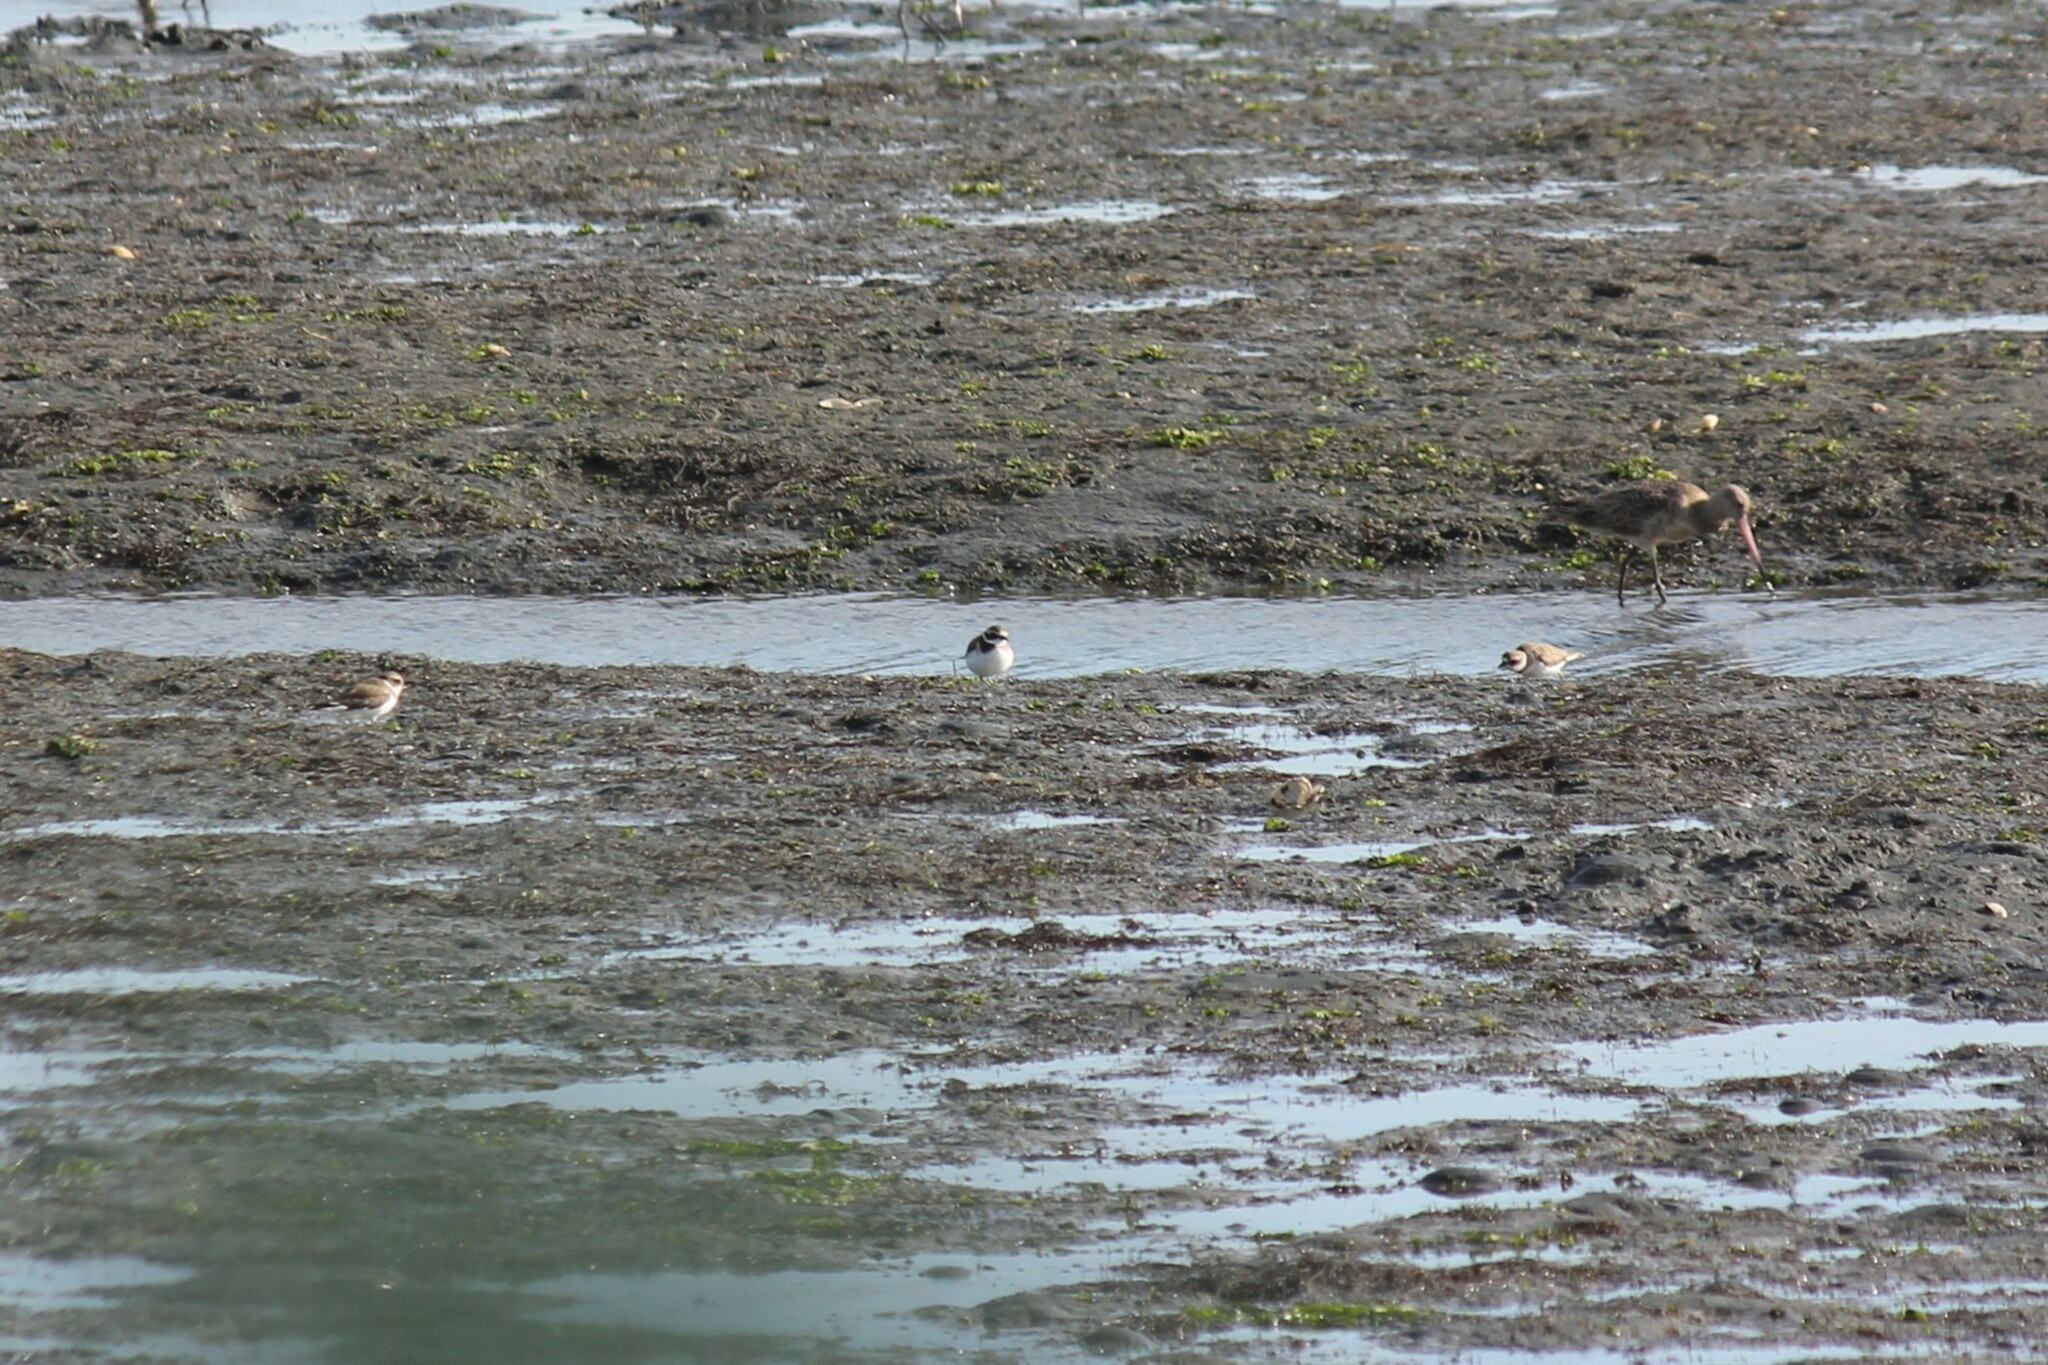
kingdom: Animalia
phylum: Chordata
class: Aves
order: Charadriiformes
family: Charadriidae
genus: Charadrius
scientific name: Charadrius semipalmatus
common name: Semipalmated plover
